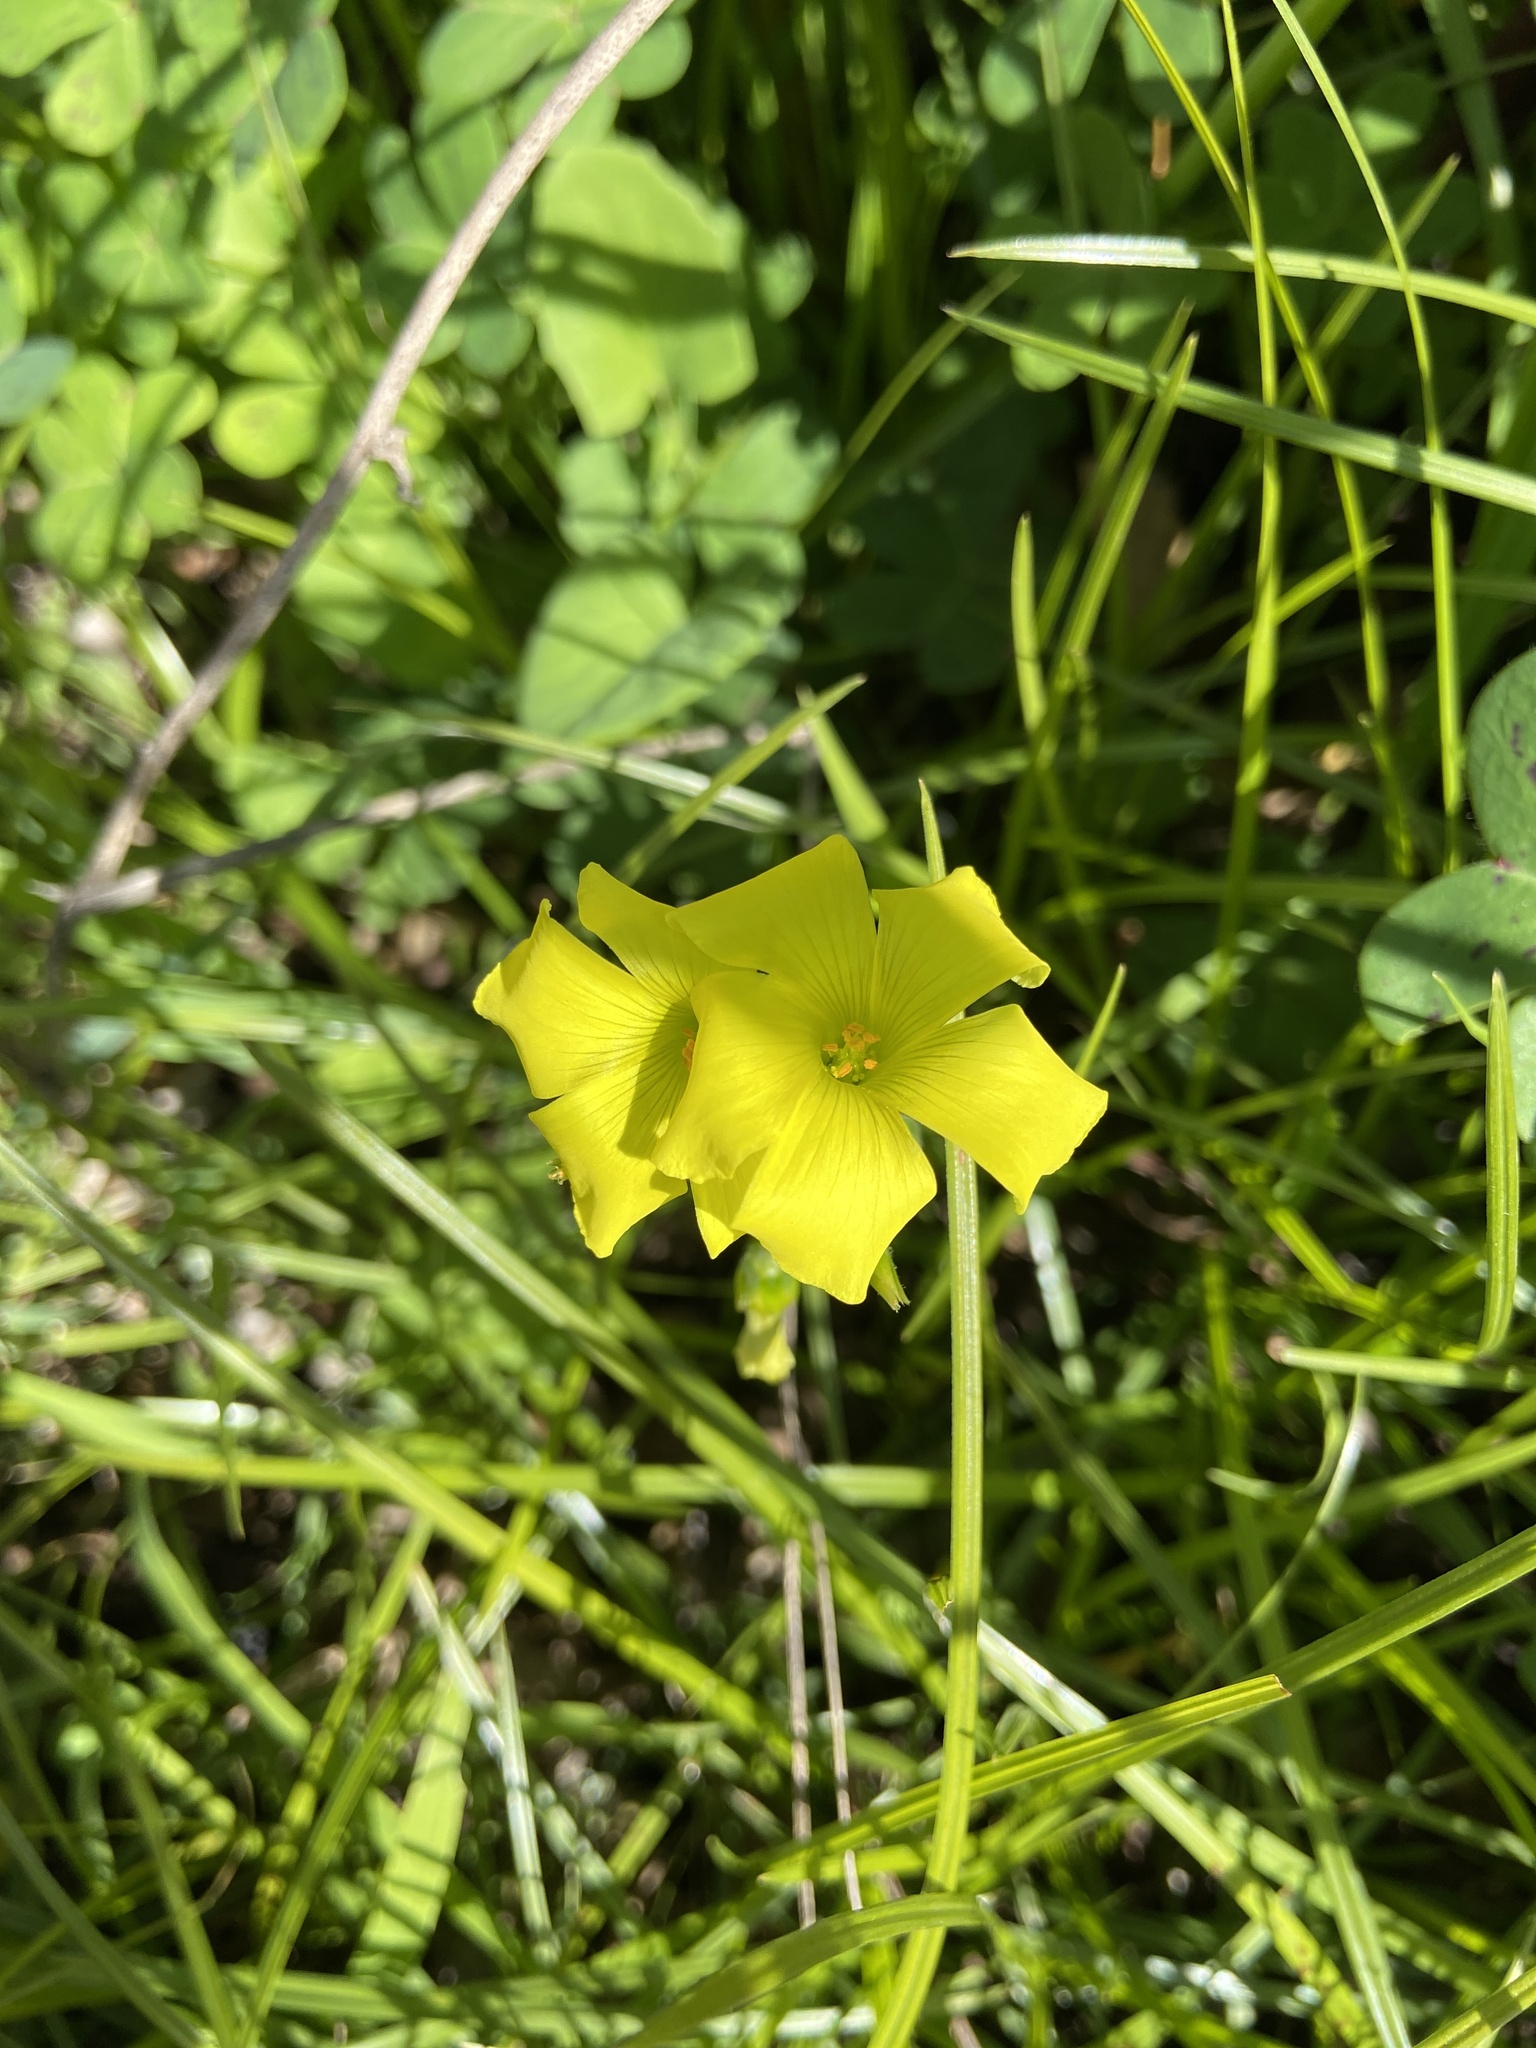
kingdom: Plantae
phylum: Tracheophyta
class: Magnoliopsida
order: Oxalidales
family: Oxalidaceae
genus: Oxalis
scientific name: Oxalis pes-caprae
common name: Bermuda-buttercup
